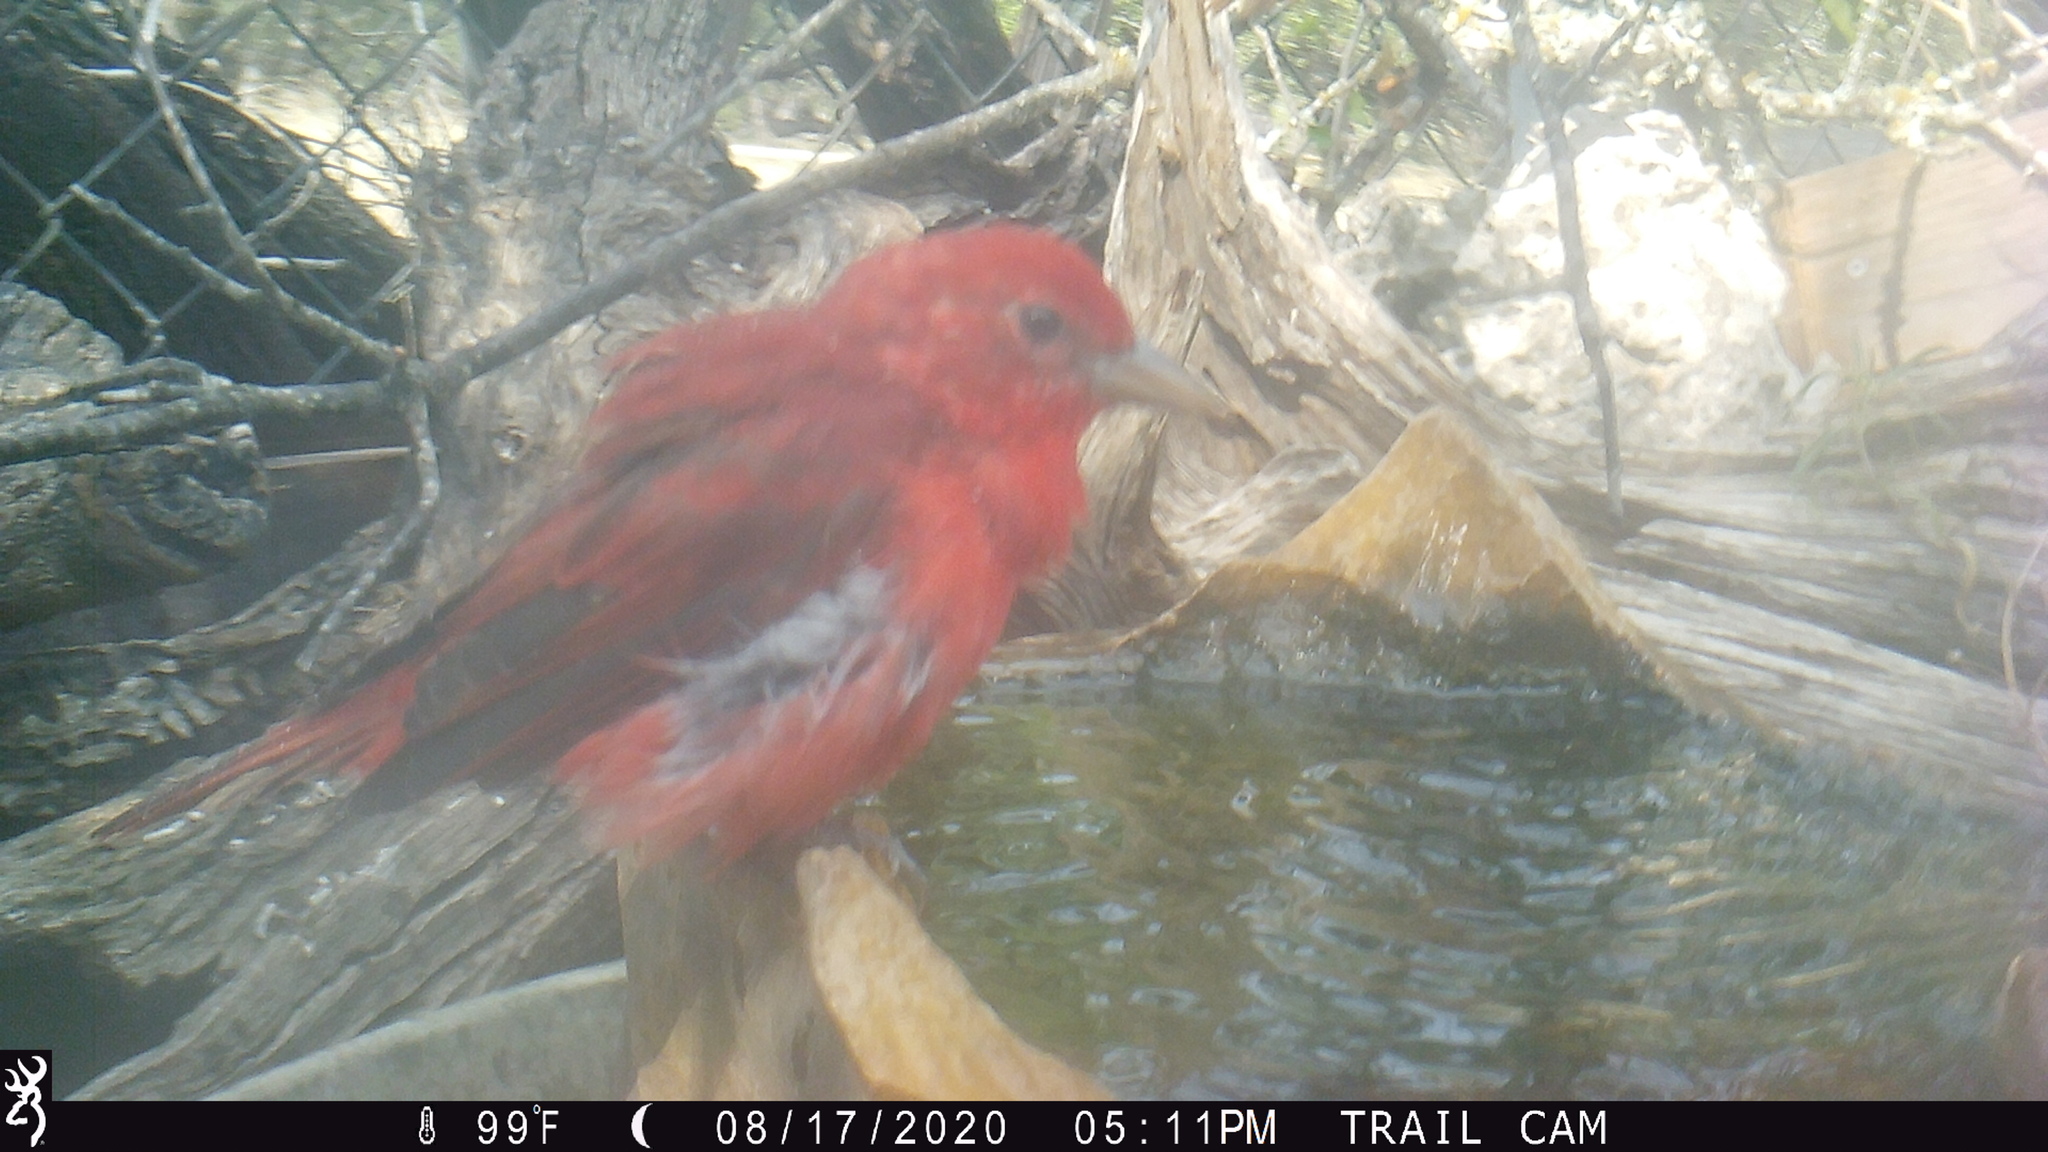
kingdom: Animalia
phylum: Chordata
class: Aves
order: Passeriformes
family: Cardinalidae
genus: Piranga
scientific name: Piranga rubra
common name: Summer tanager
